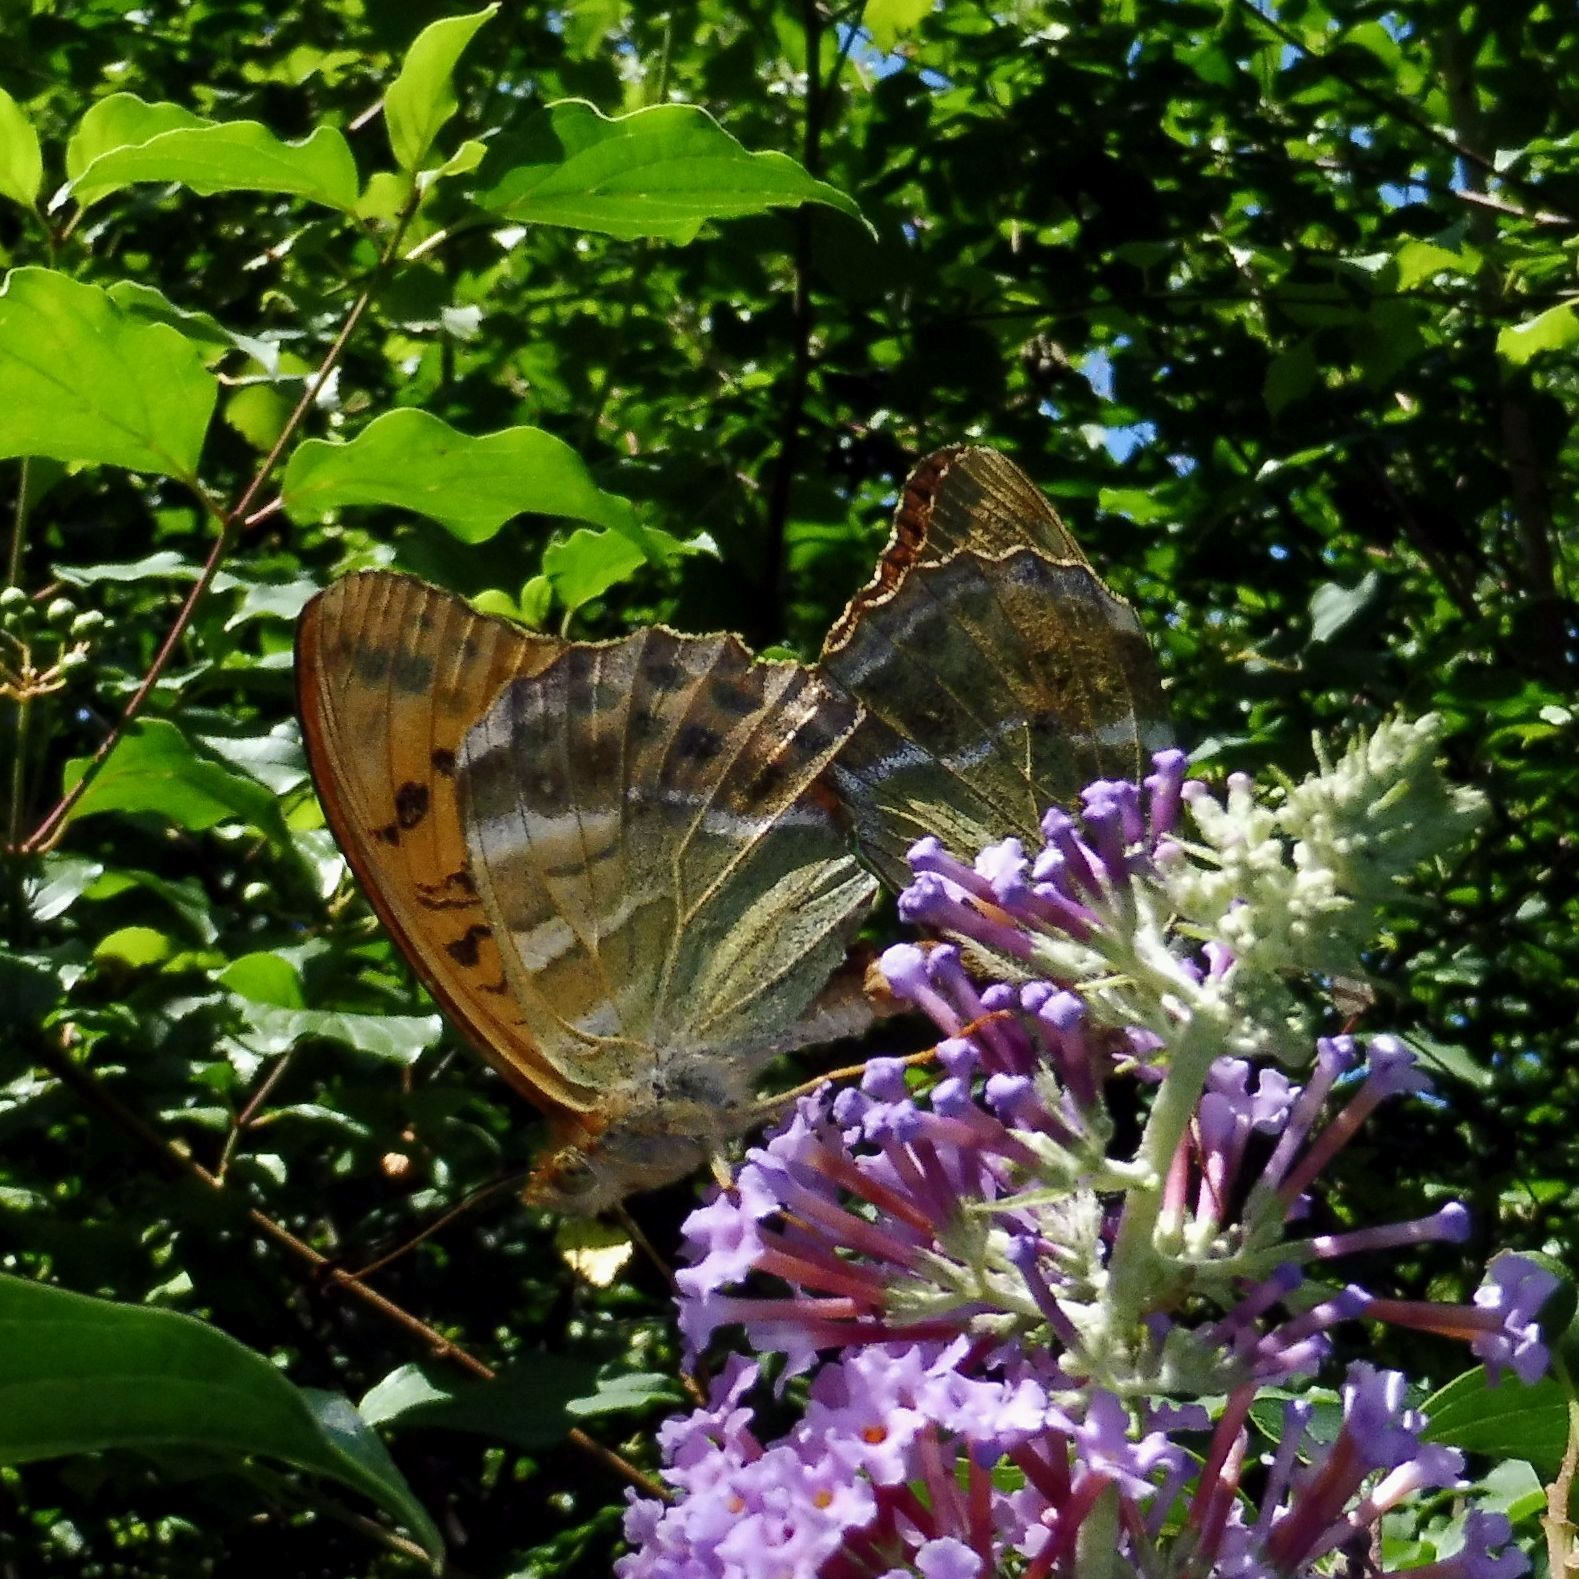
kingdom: Animalia
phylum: Arthropoda
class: Insecta
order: Lepidoptera
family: Nymphalidae
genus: Argynnis
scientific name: Argynnis paphia
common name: Silver-washed fritillary
